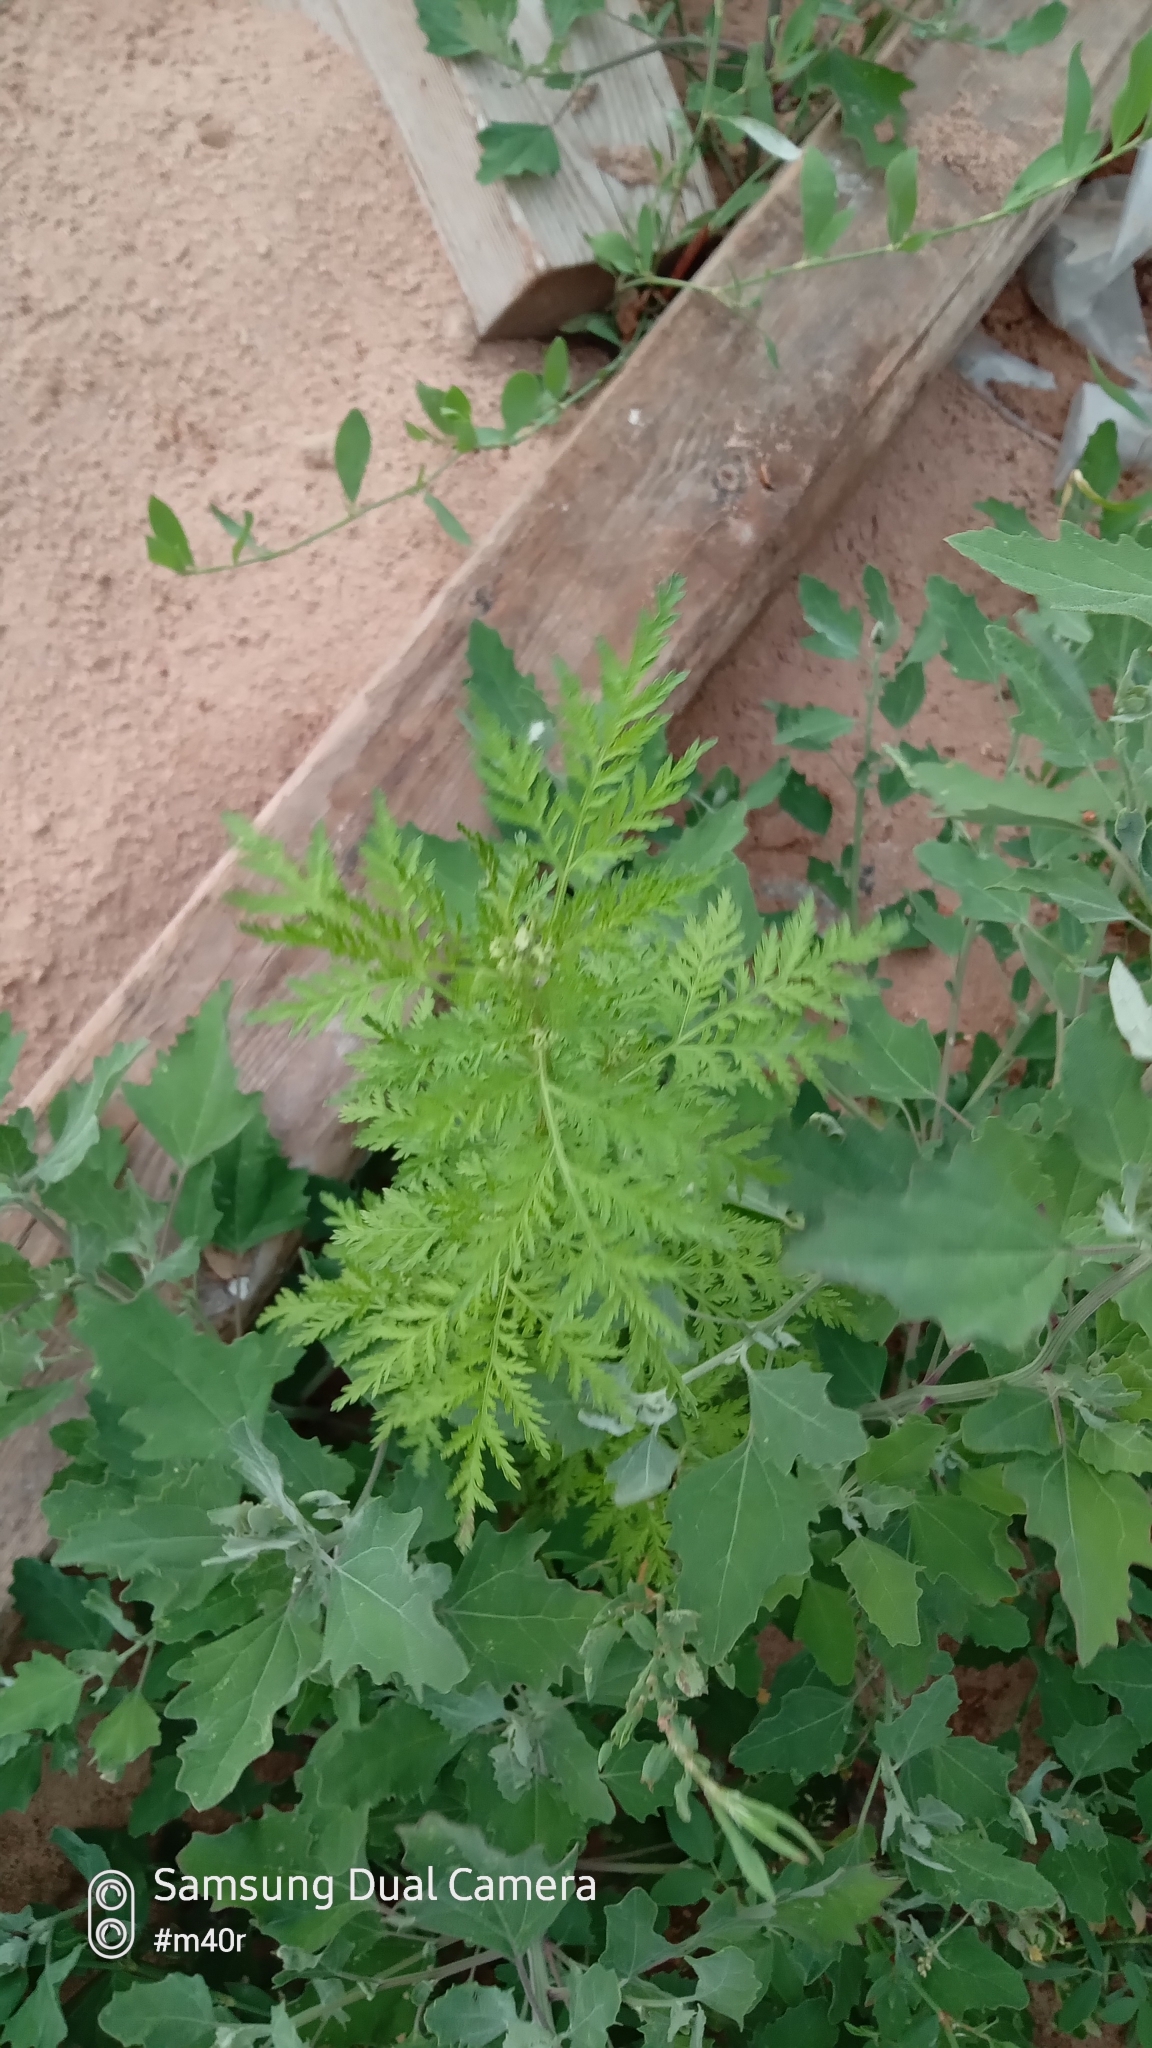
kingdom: Plantae
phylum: Tracheophyta
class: Magnoliopsida
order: Asterales
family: Asteraceae
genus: Artemisia
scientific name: Artemisia annua
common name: Sweet sagewort
